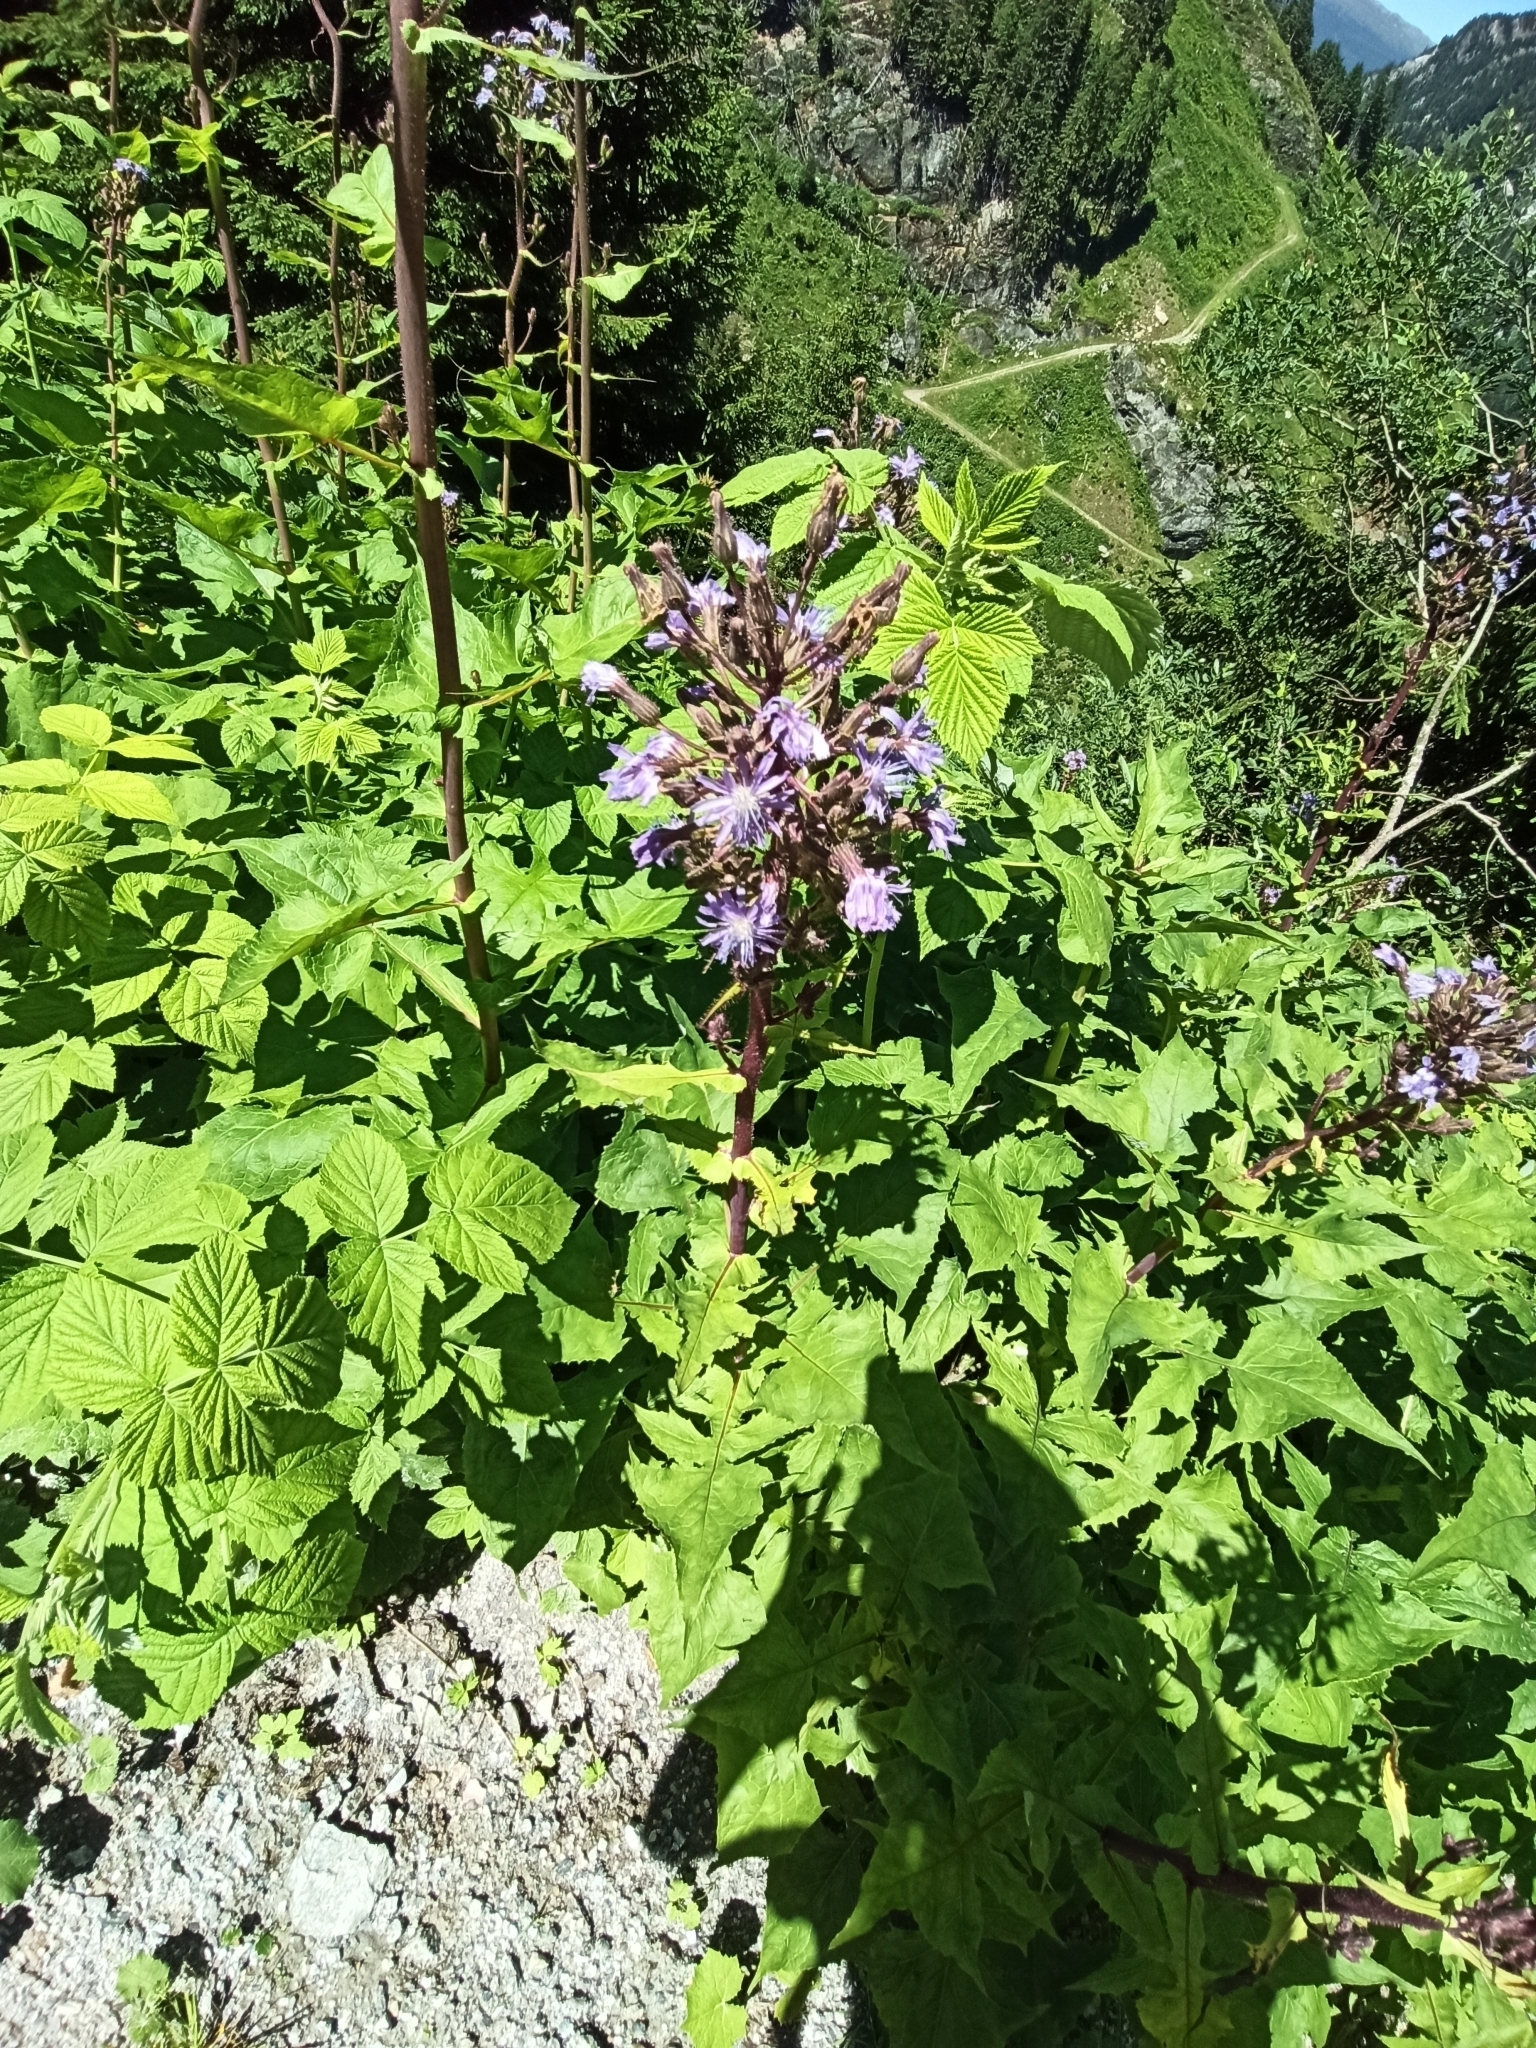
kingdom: Plantae
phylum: Tracheophyta
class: Magnoliopsida
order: Asterales
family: Asteraceae
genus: Cicerbita
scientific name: Cicerbita alpina
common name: Alpine blue-sow-thistle
